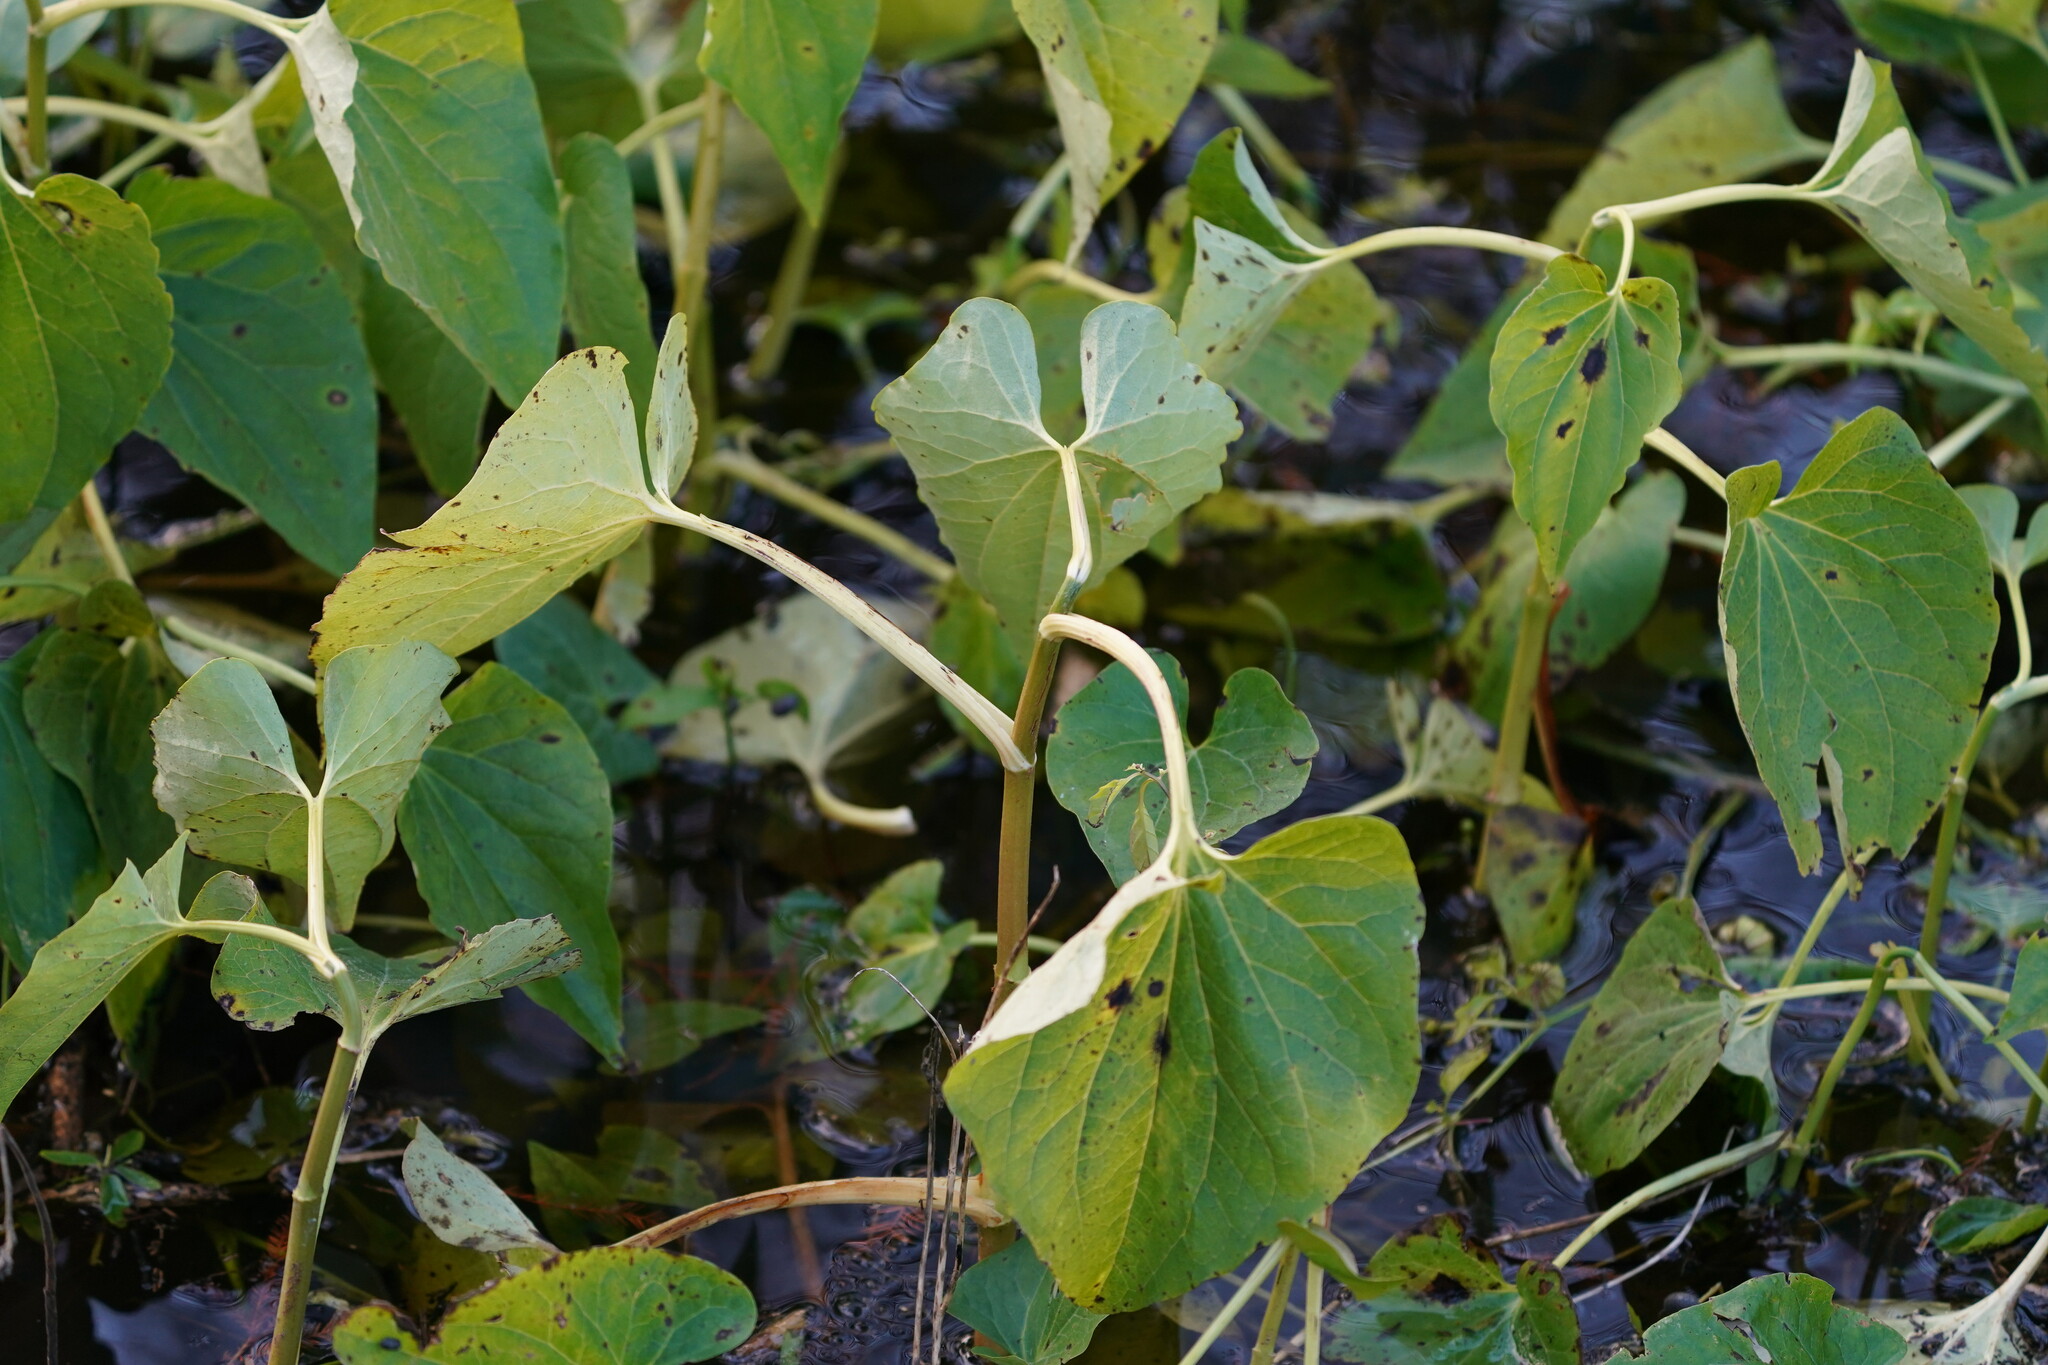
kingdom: Plantae
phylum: Tracheophyta
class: Magnoliopsida
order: Piperales
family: Saururaceae
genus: Saururus
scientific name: Saururus cernuus
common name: Lizard's-tail
